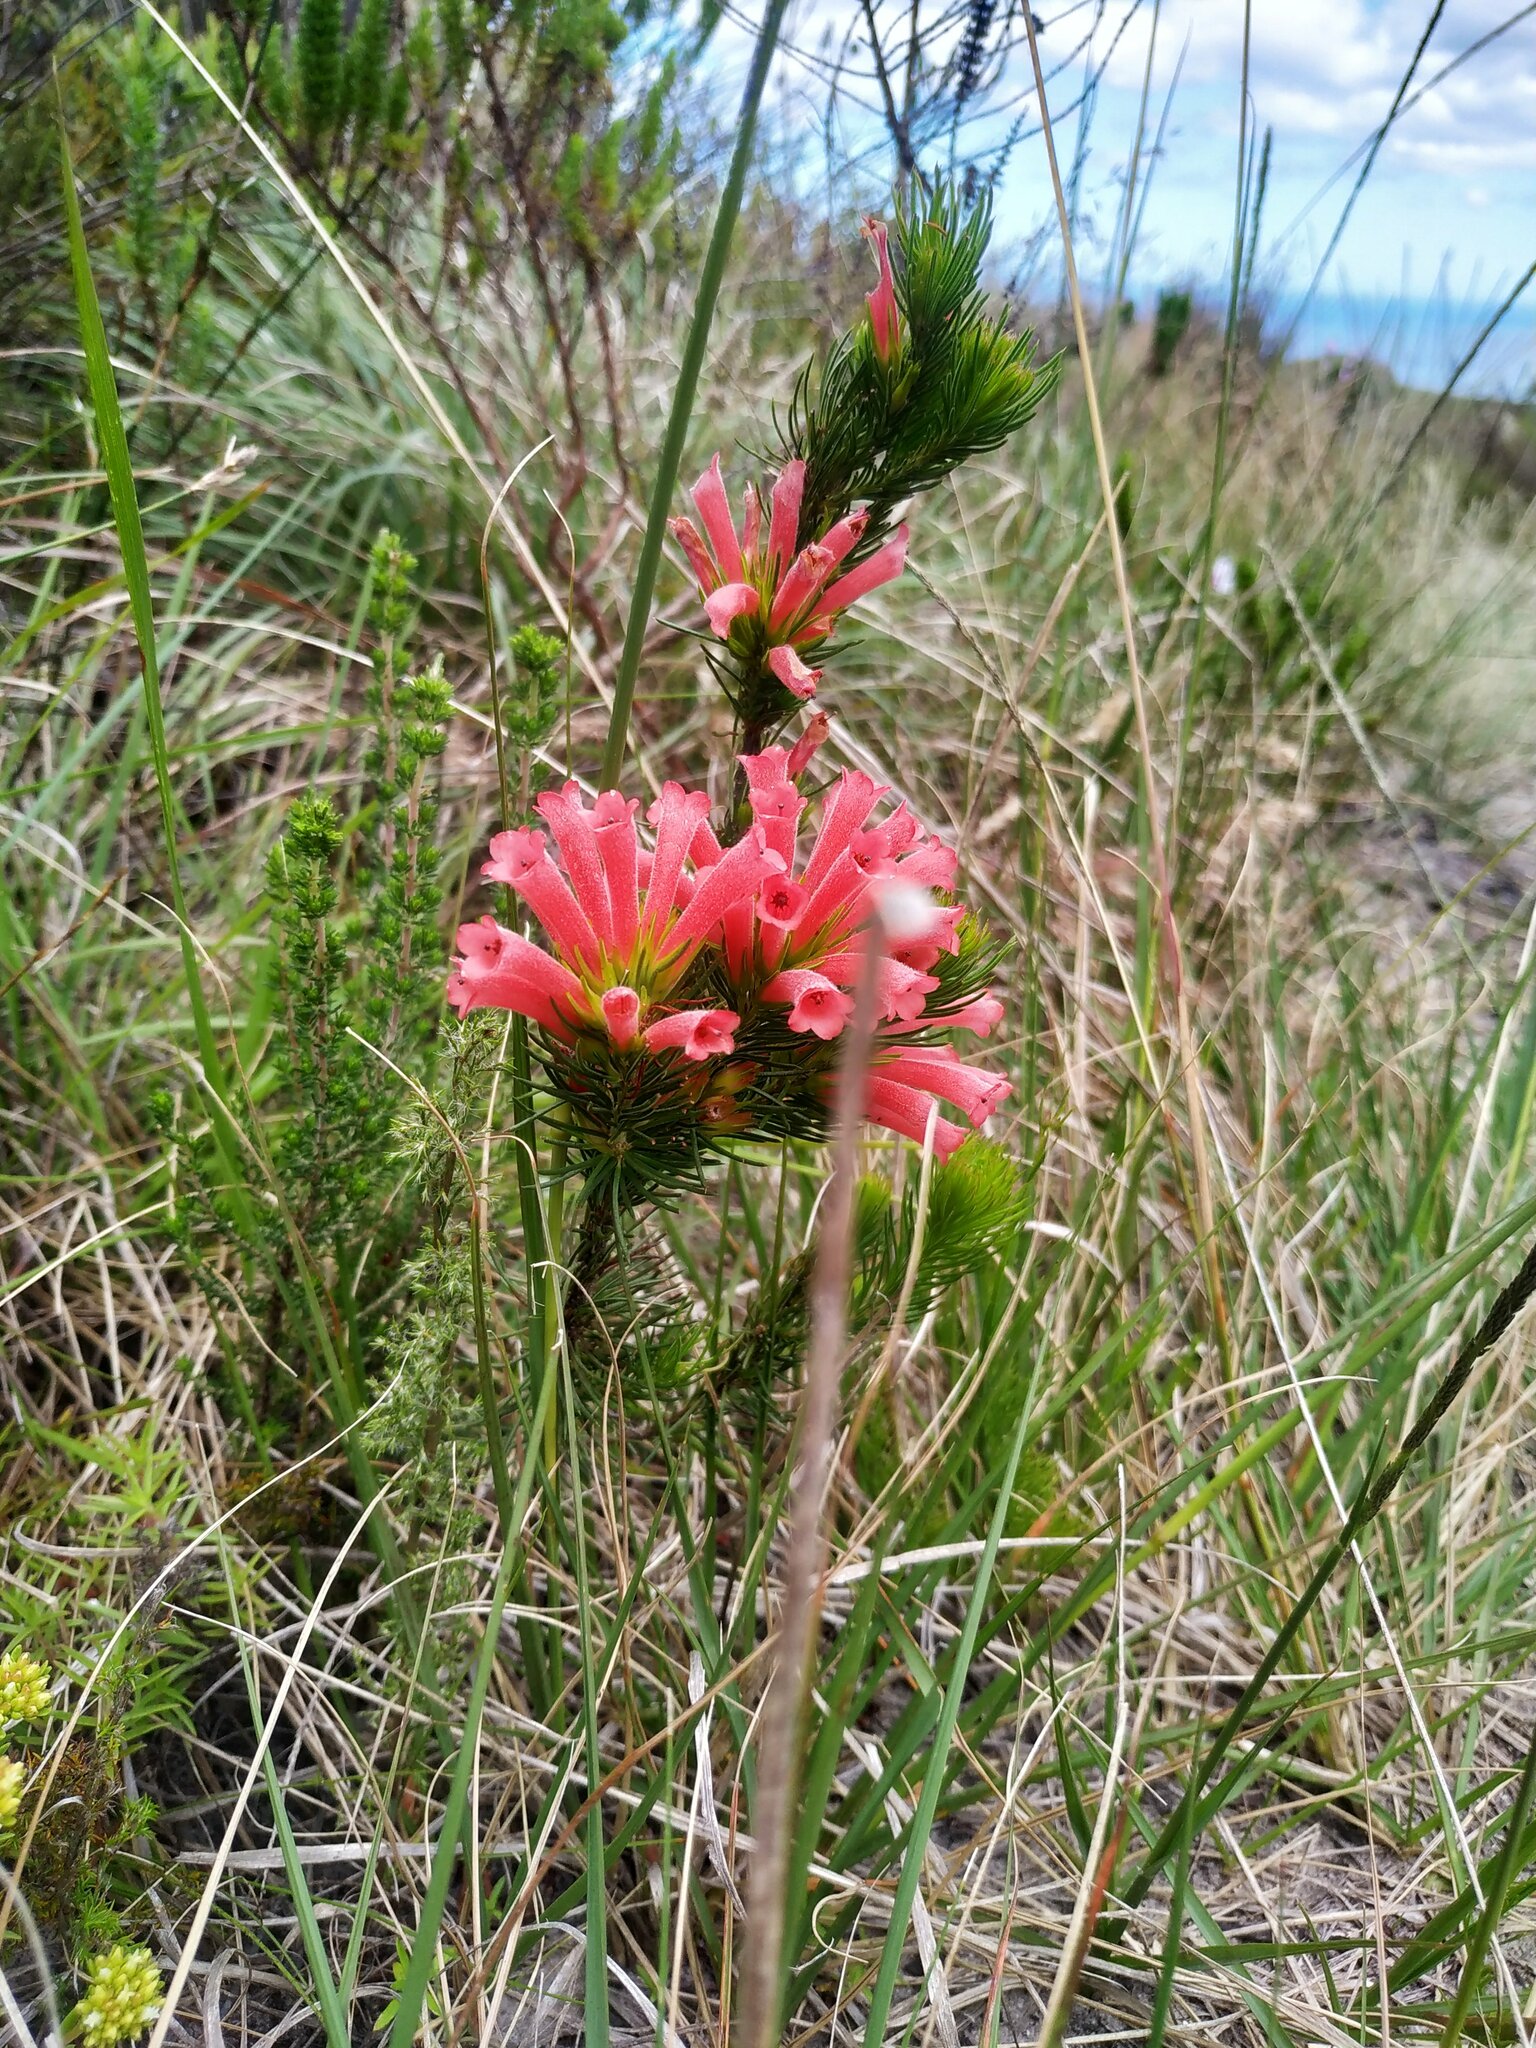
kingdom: Plantae
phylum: Tracheophyta
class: Magnoliopsida
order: Ericales
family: Ericaceae
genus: Erica
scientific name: Erica vestita
